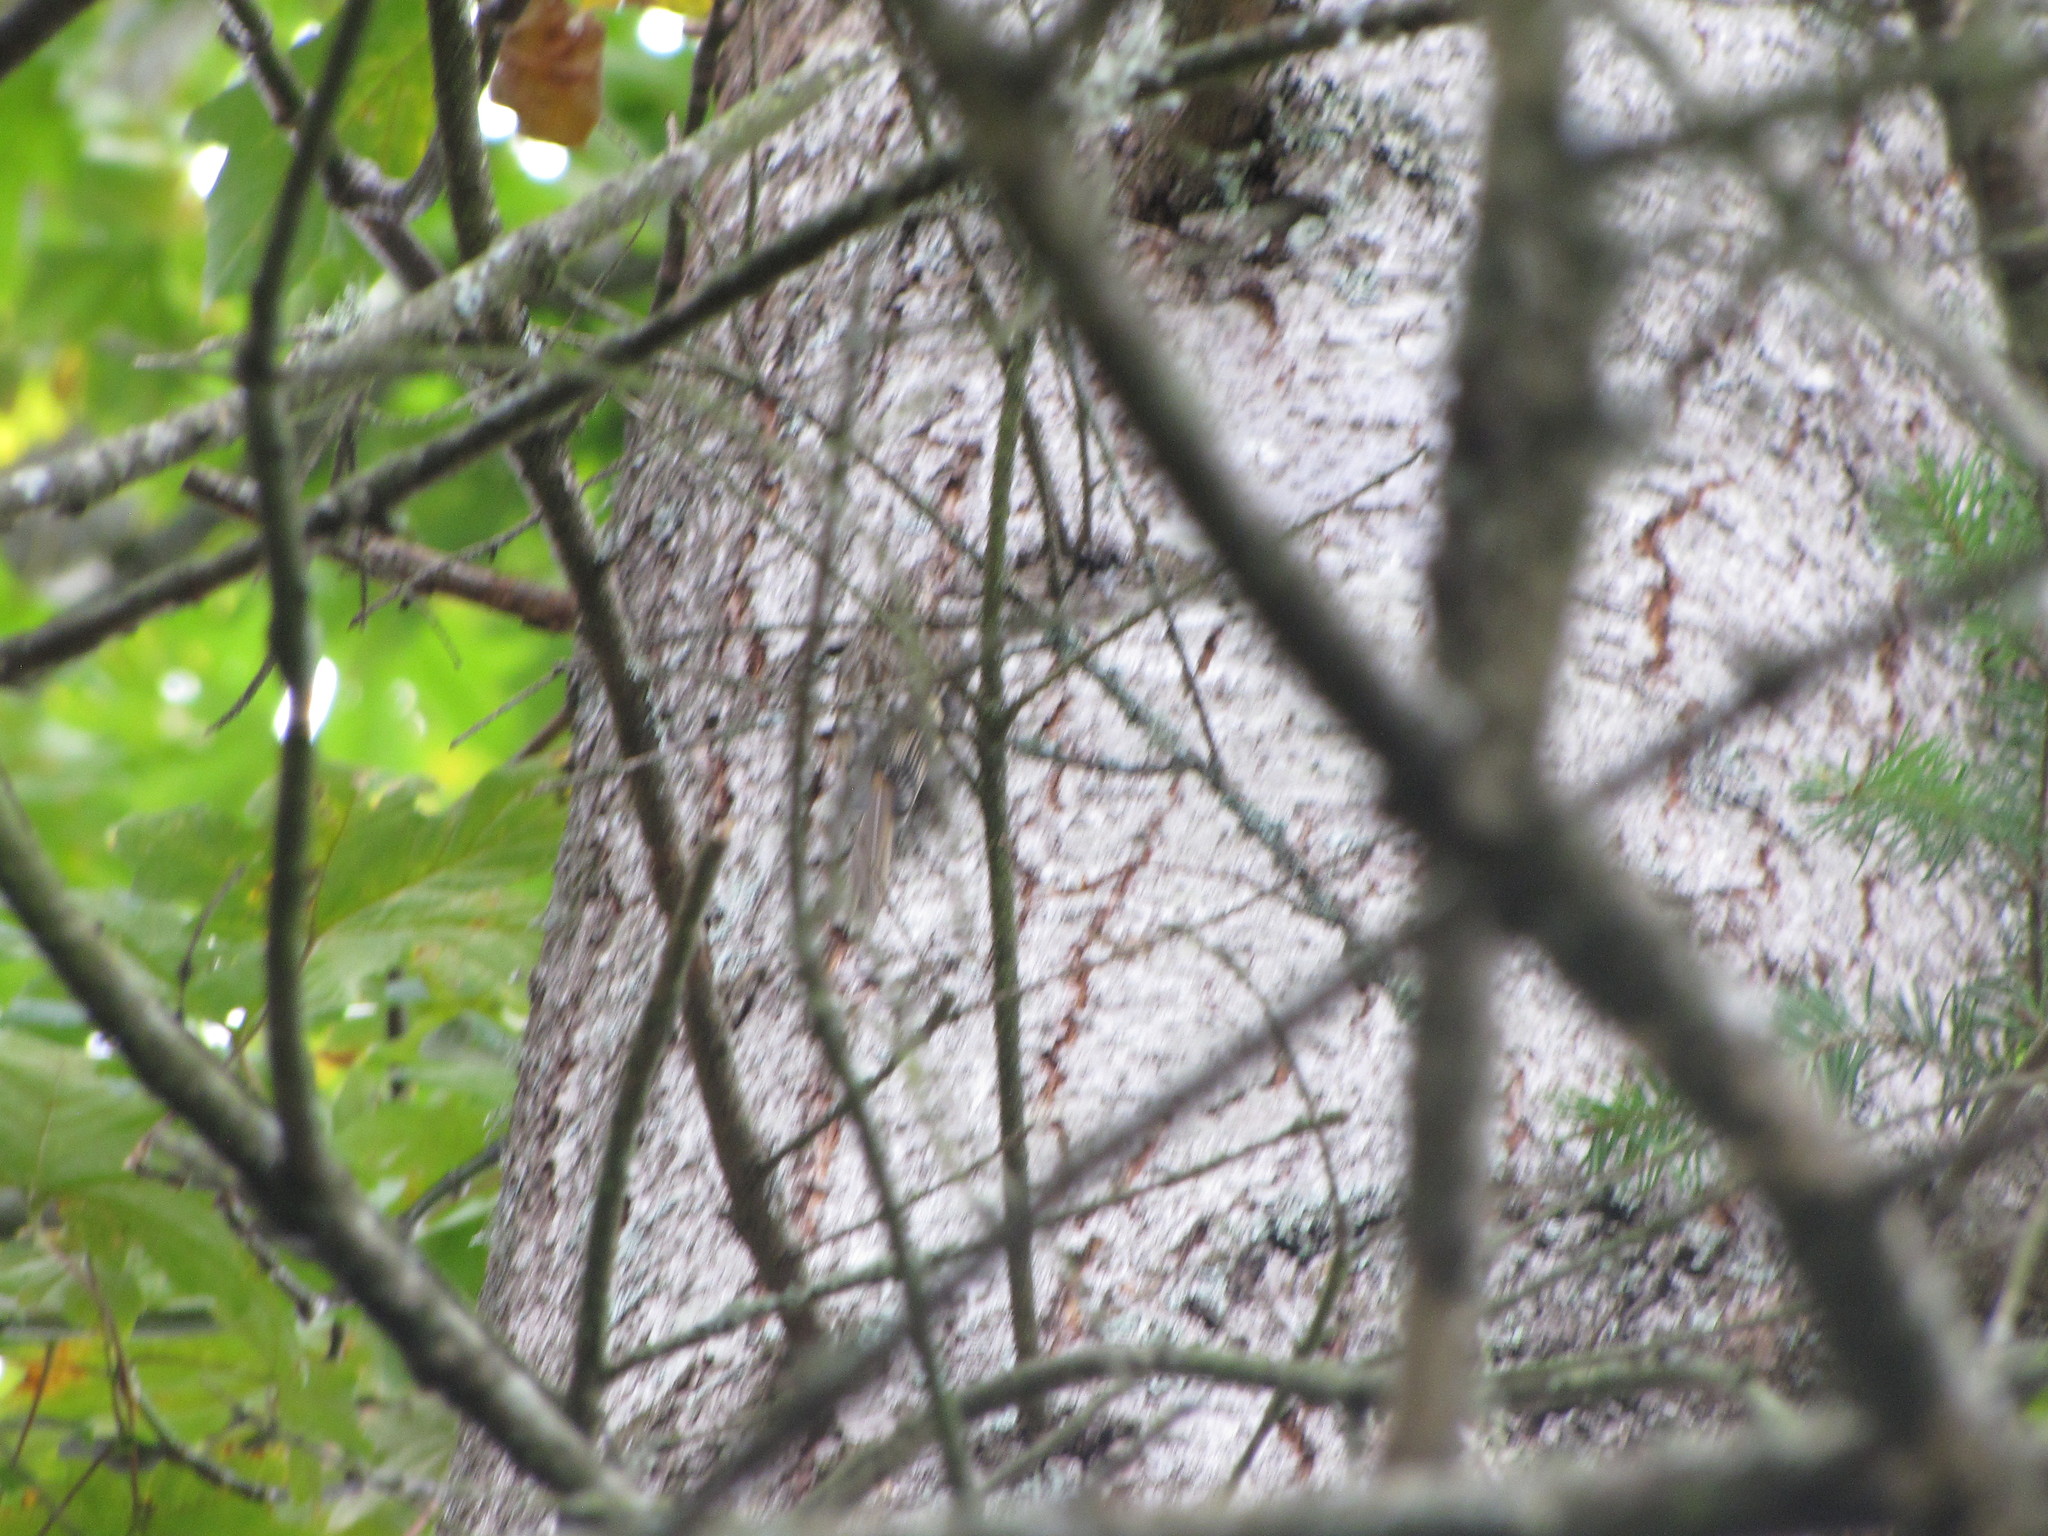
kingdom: Animalia
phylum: Chordata
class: Aves
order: Passeriformes
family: Certhiidae
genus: Certhia
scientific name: Certhia americana
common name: Brown creeper
